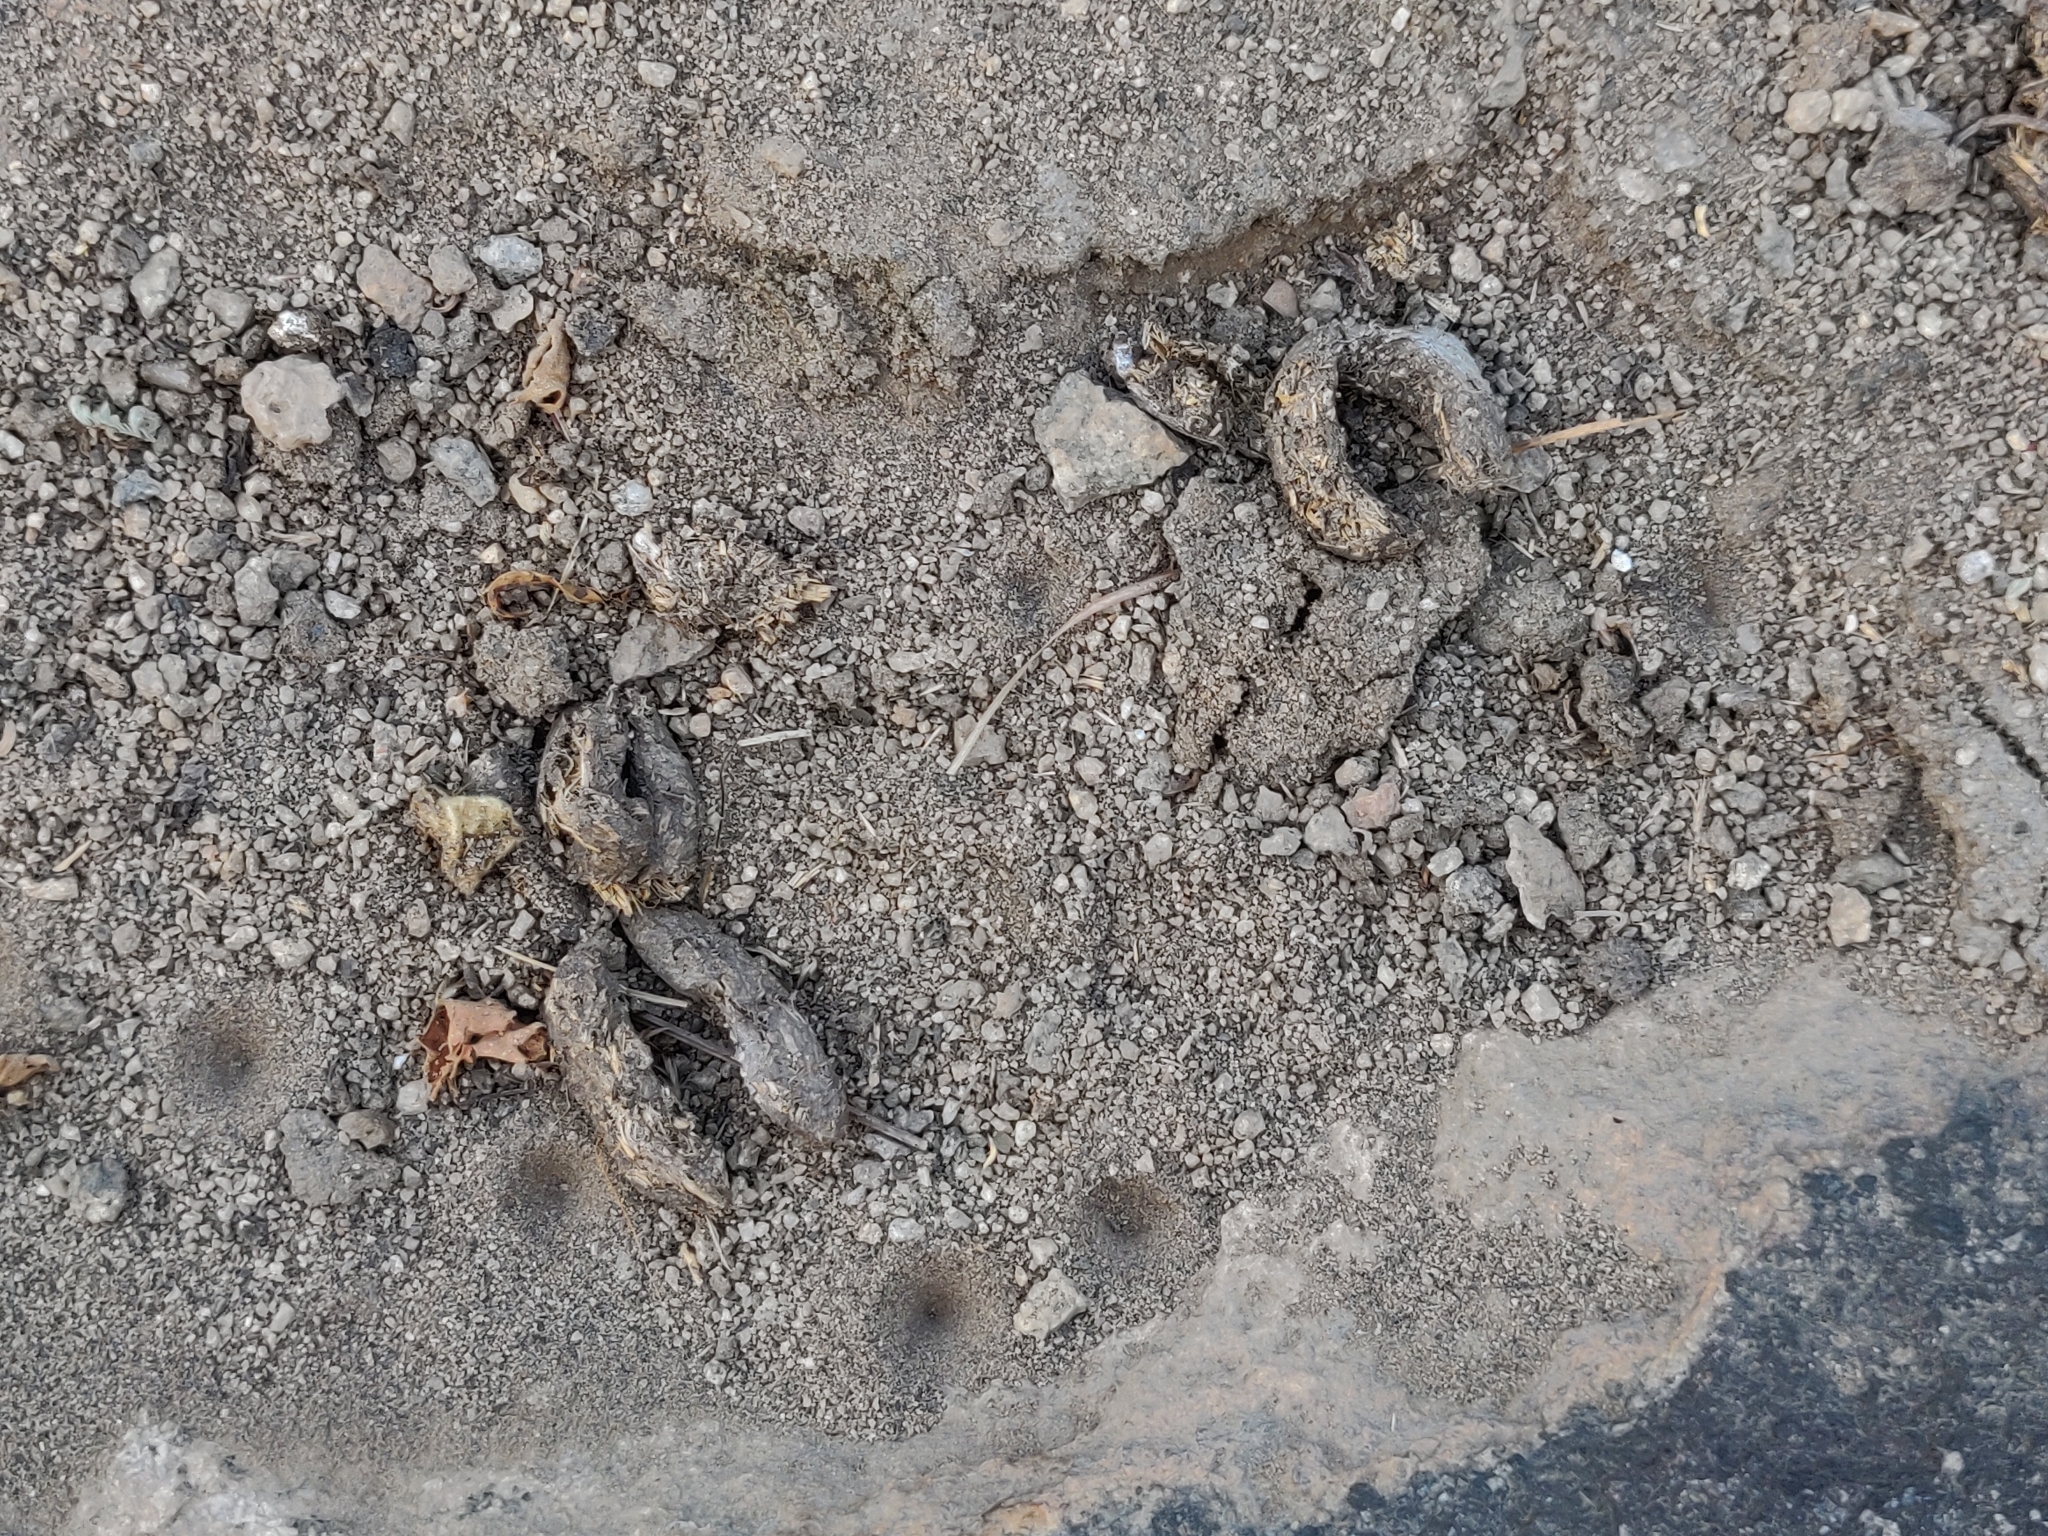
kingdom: Animalia
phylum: Chordata
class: Mammalia
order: Rodentia
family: Hystricidae
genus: Hystrix
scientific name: Hystrix indica
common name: Indian crested porcupine
